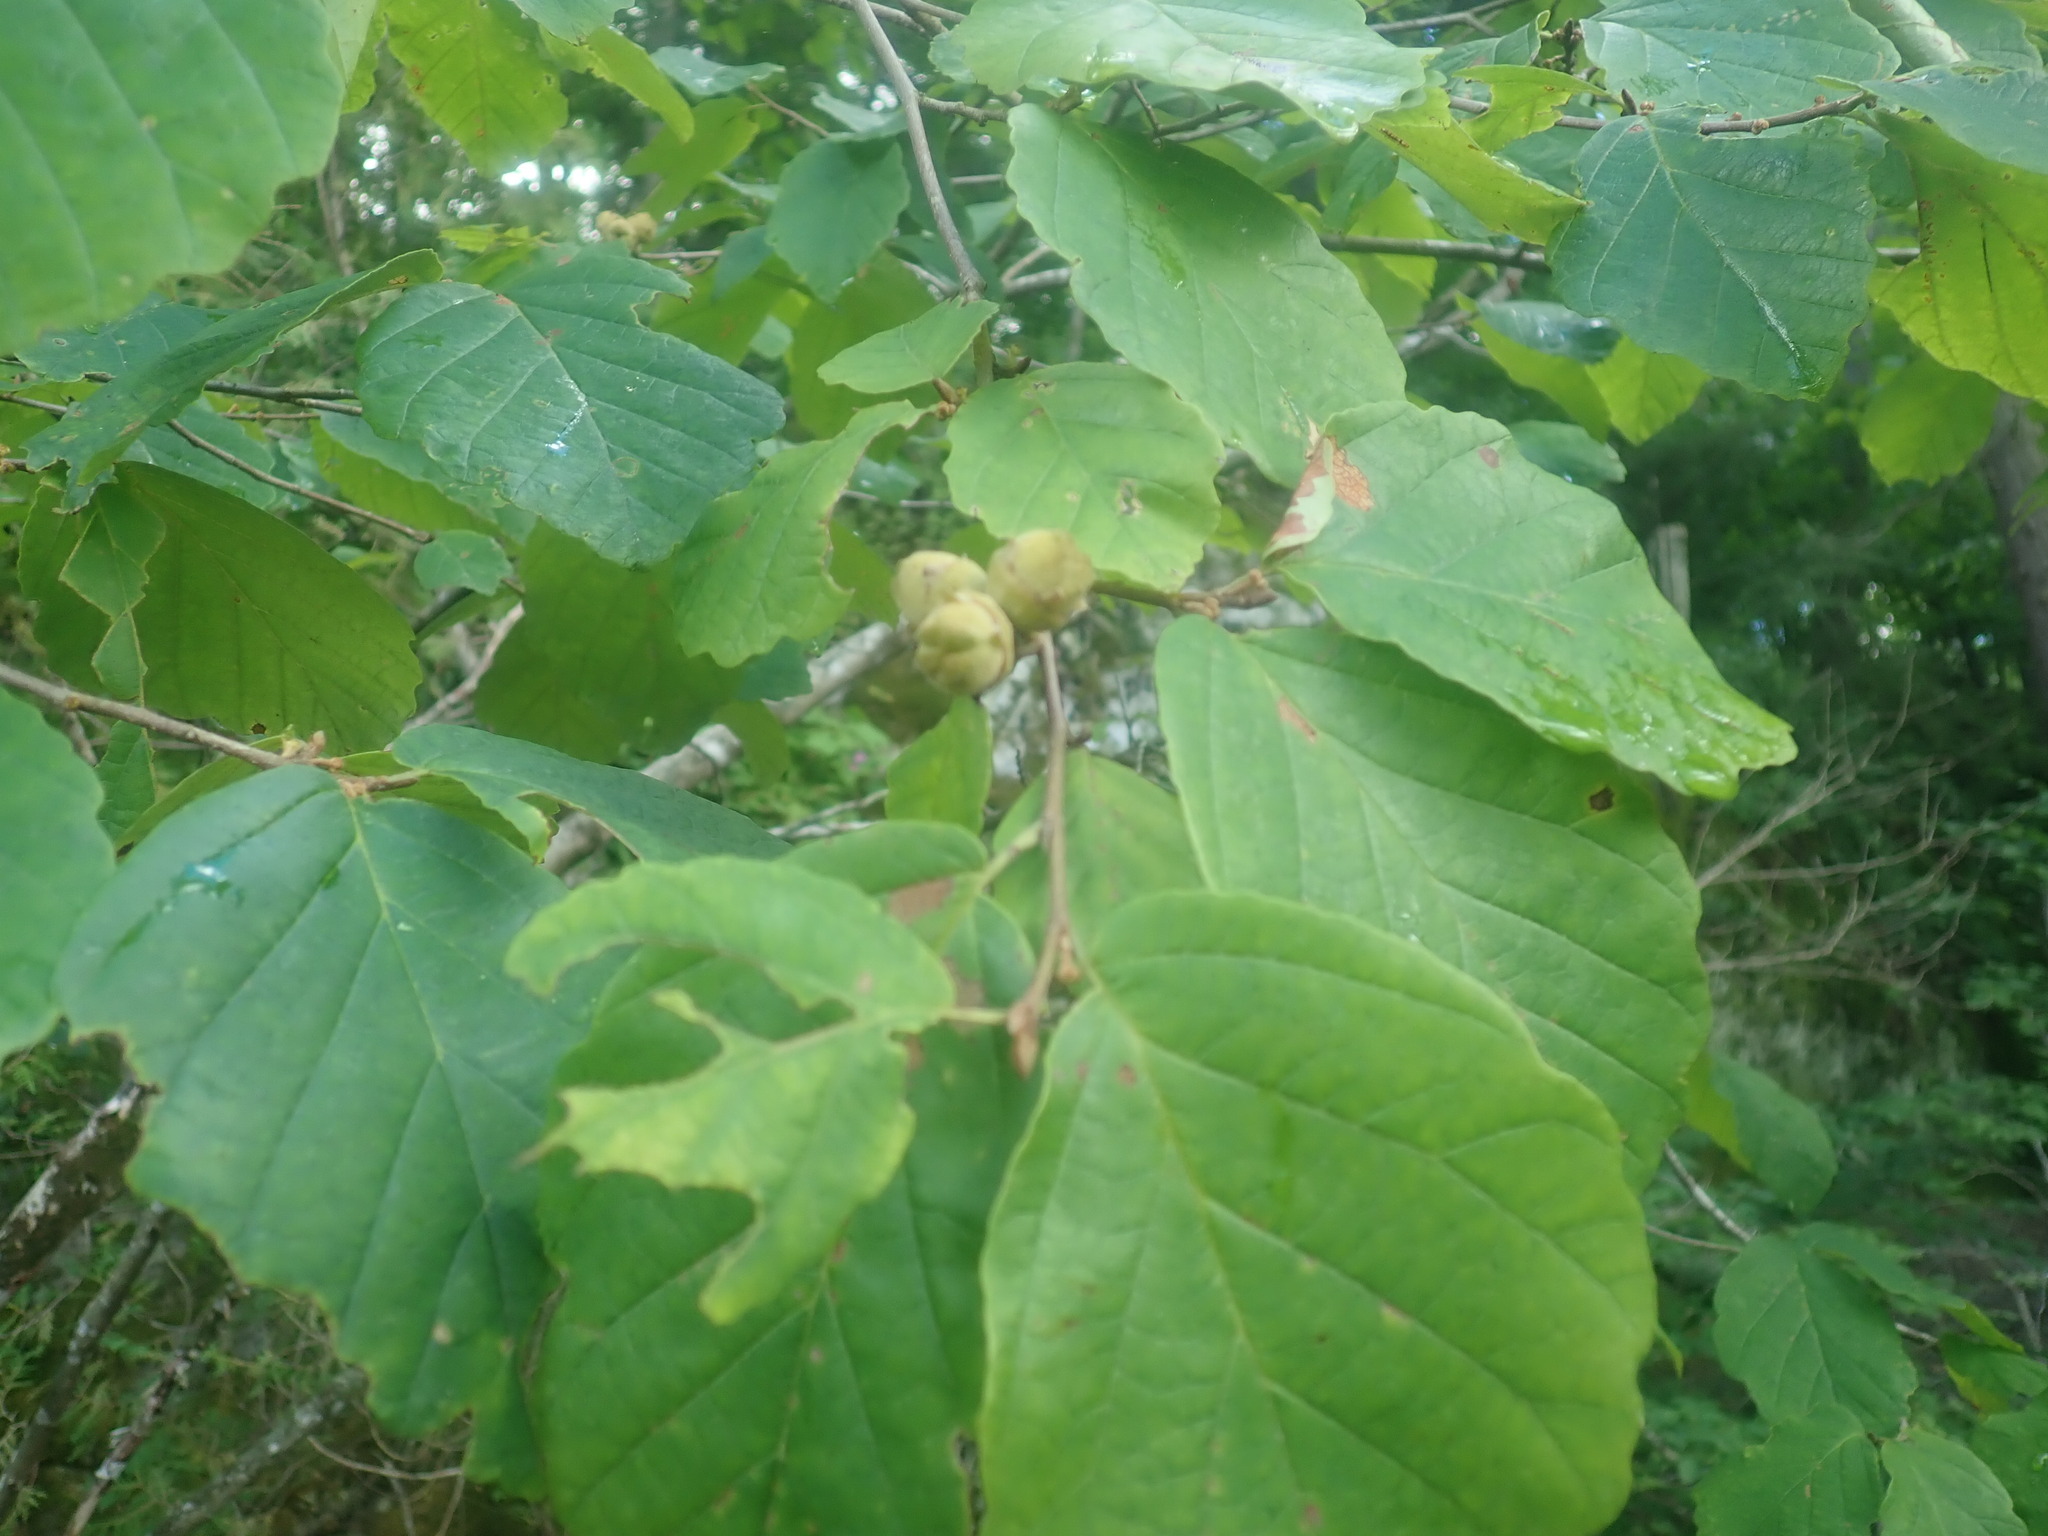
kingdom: Plantae
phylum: Tracheophyta
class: Magnoliopsida
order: Saxifragales
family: Hamamelidaceae
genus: Hamamelis
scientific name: Hamamelis virginiana
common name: Witch-hazel
